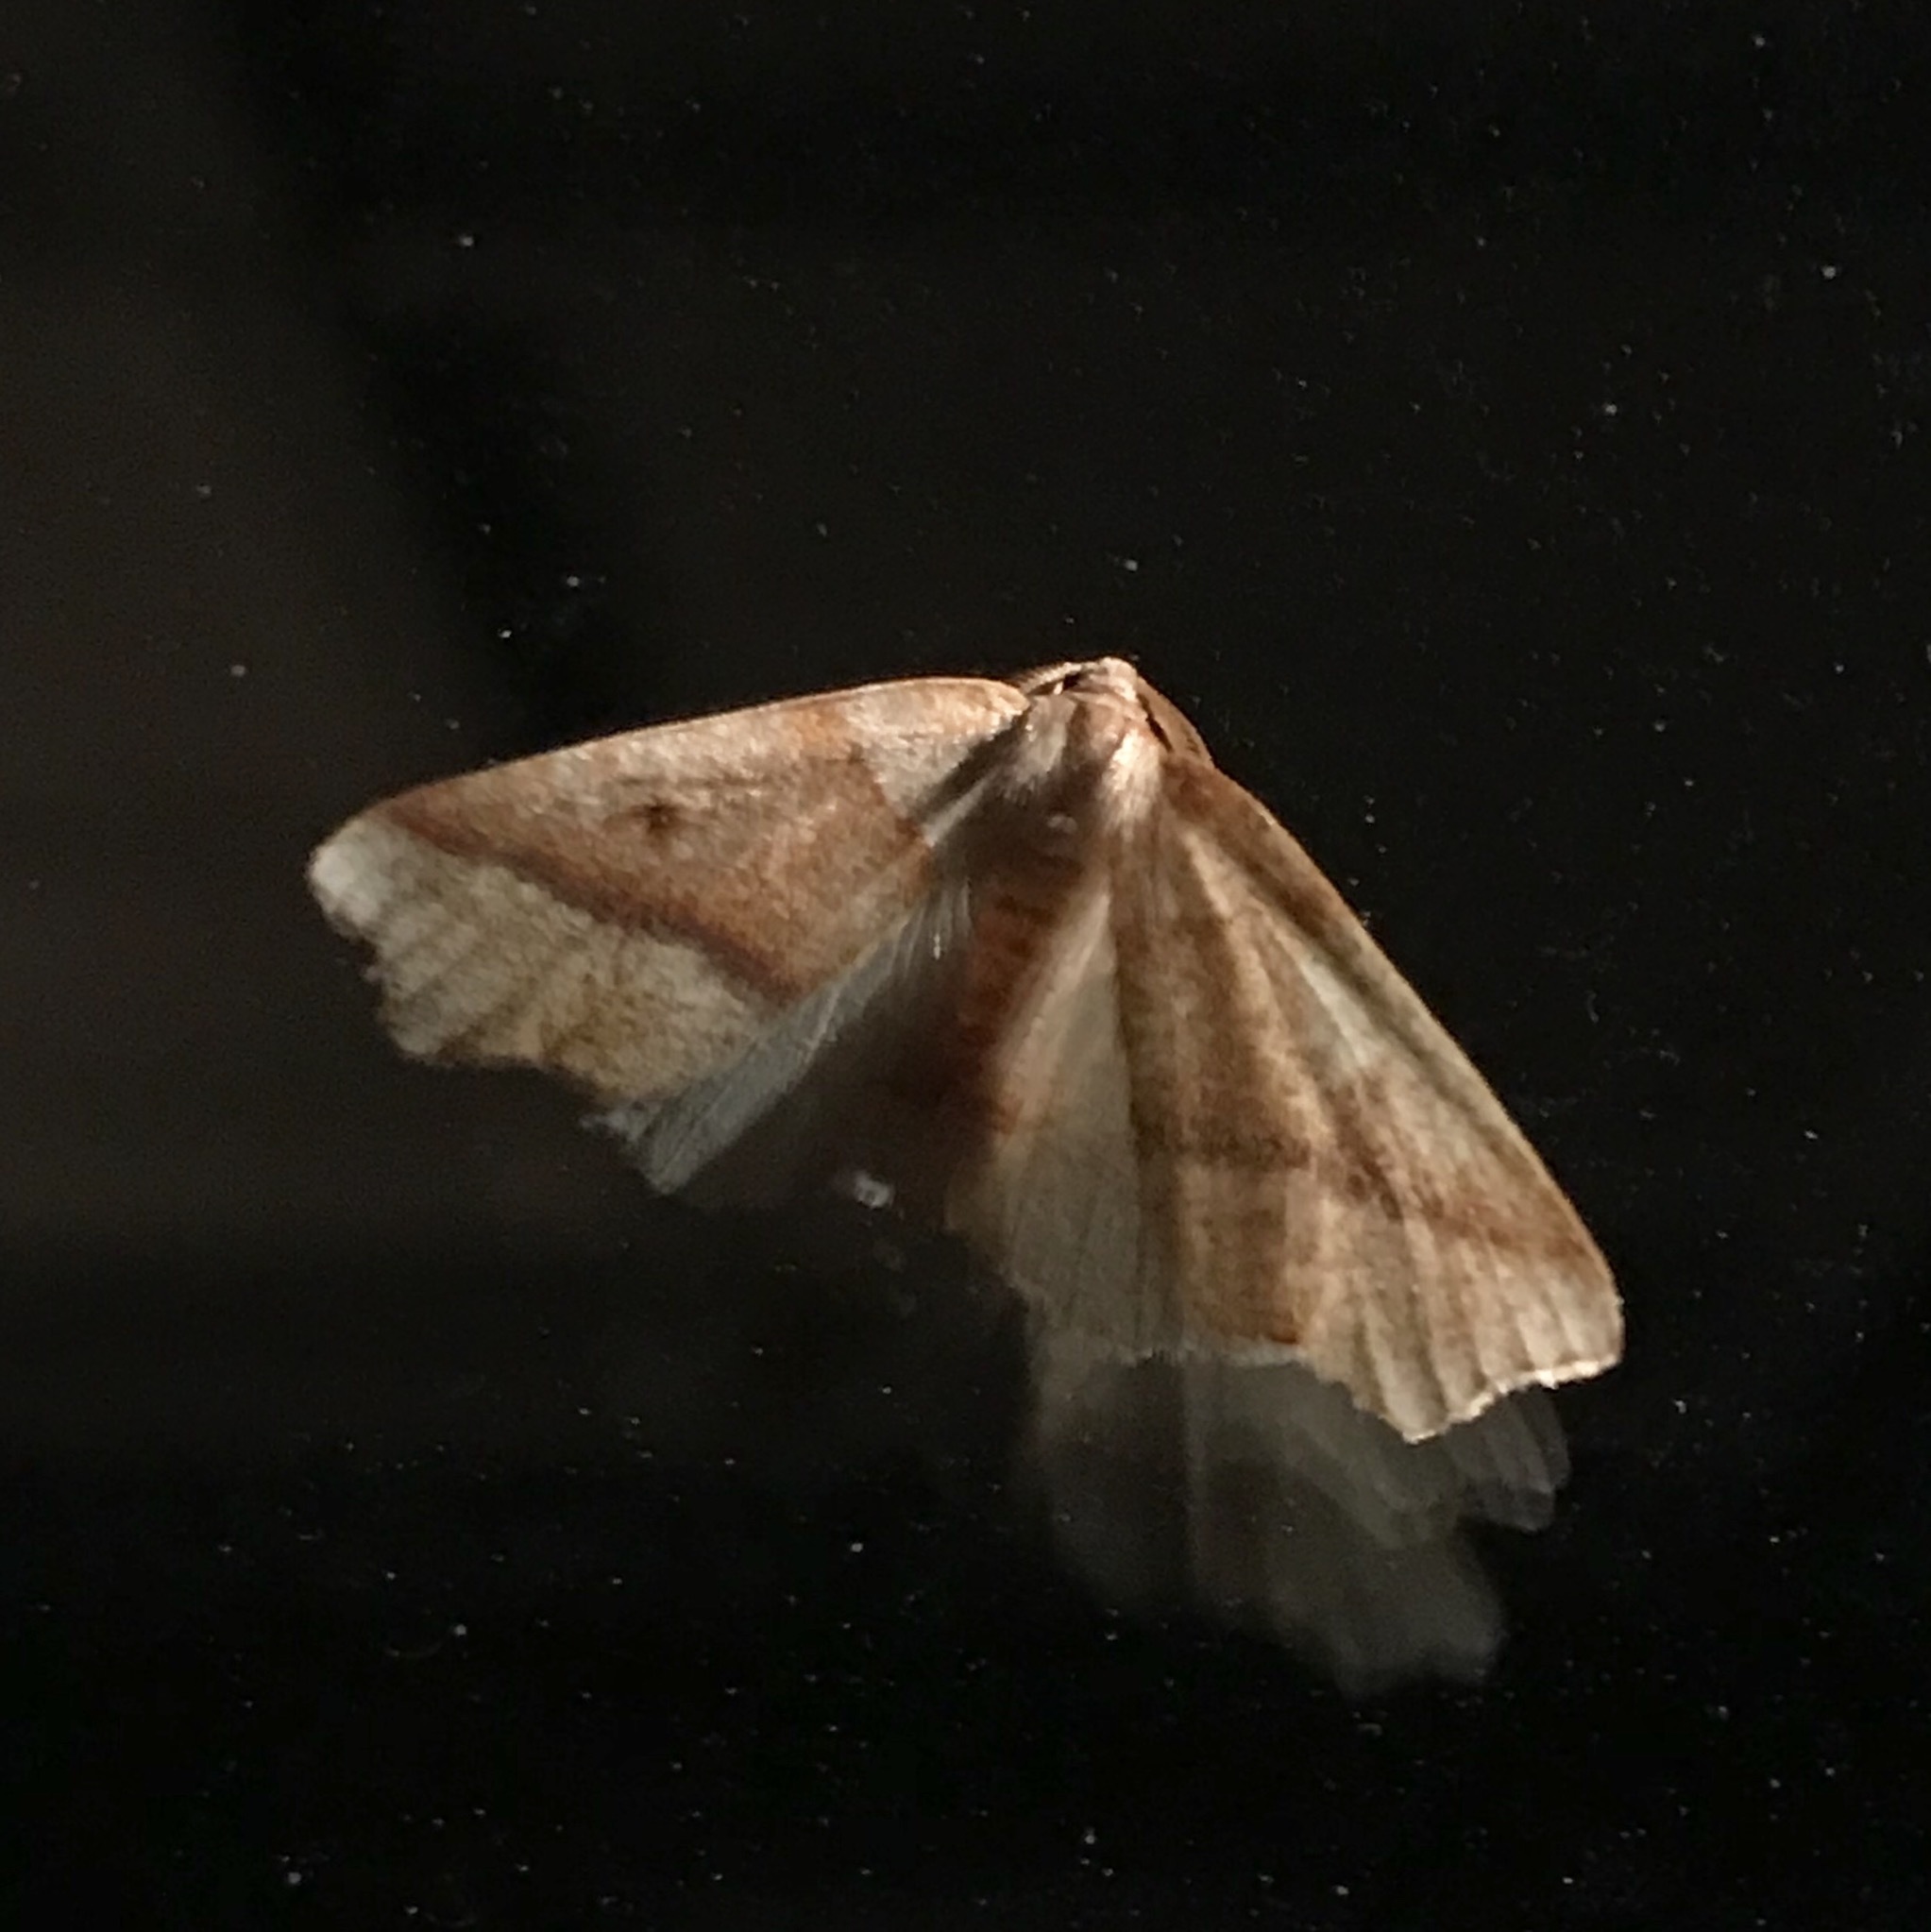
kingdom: Animalia
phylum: Arthropoda
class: Insecta
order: Lepidoptera
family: Geometridae
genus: Plagodis
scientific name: Plagodis alcoolaria
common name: Hollow-spotted plagodis
